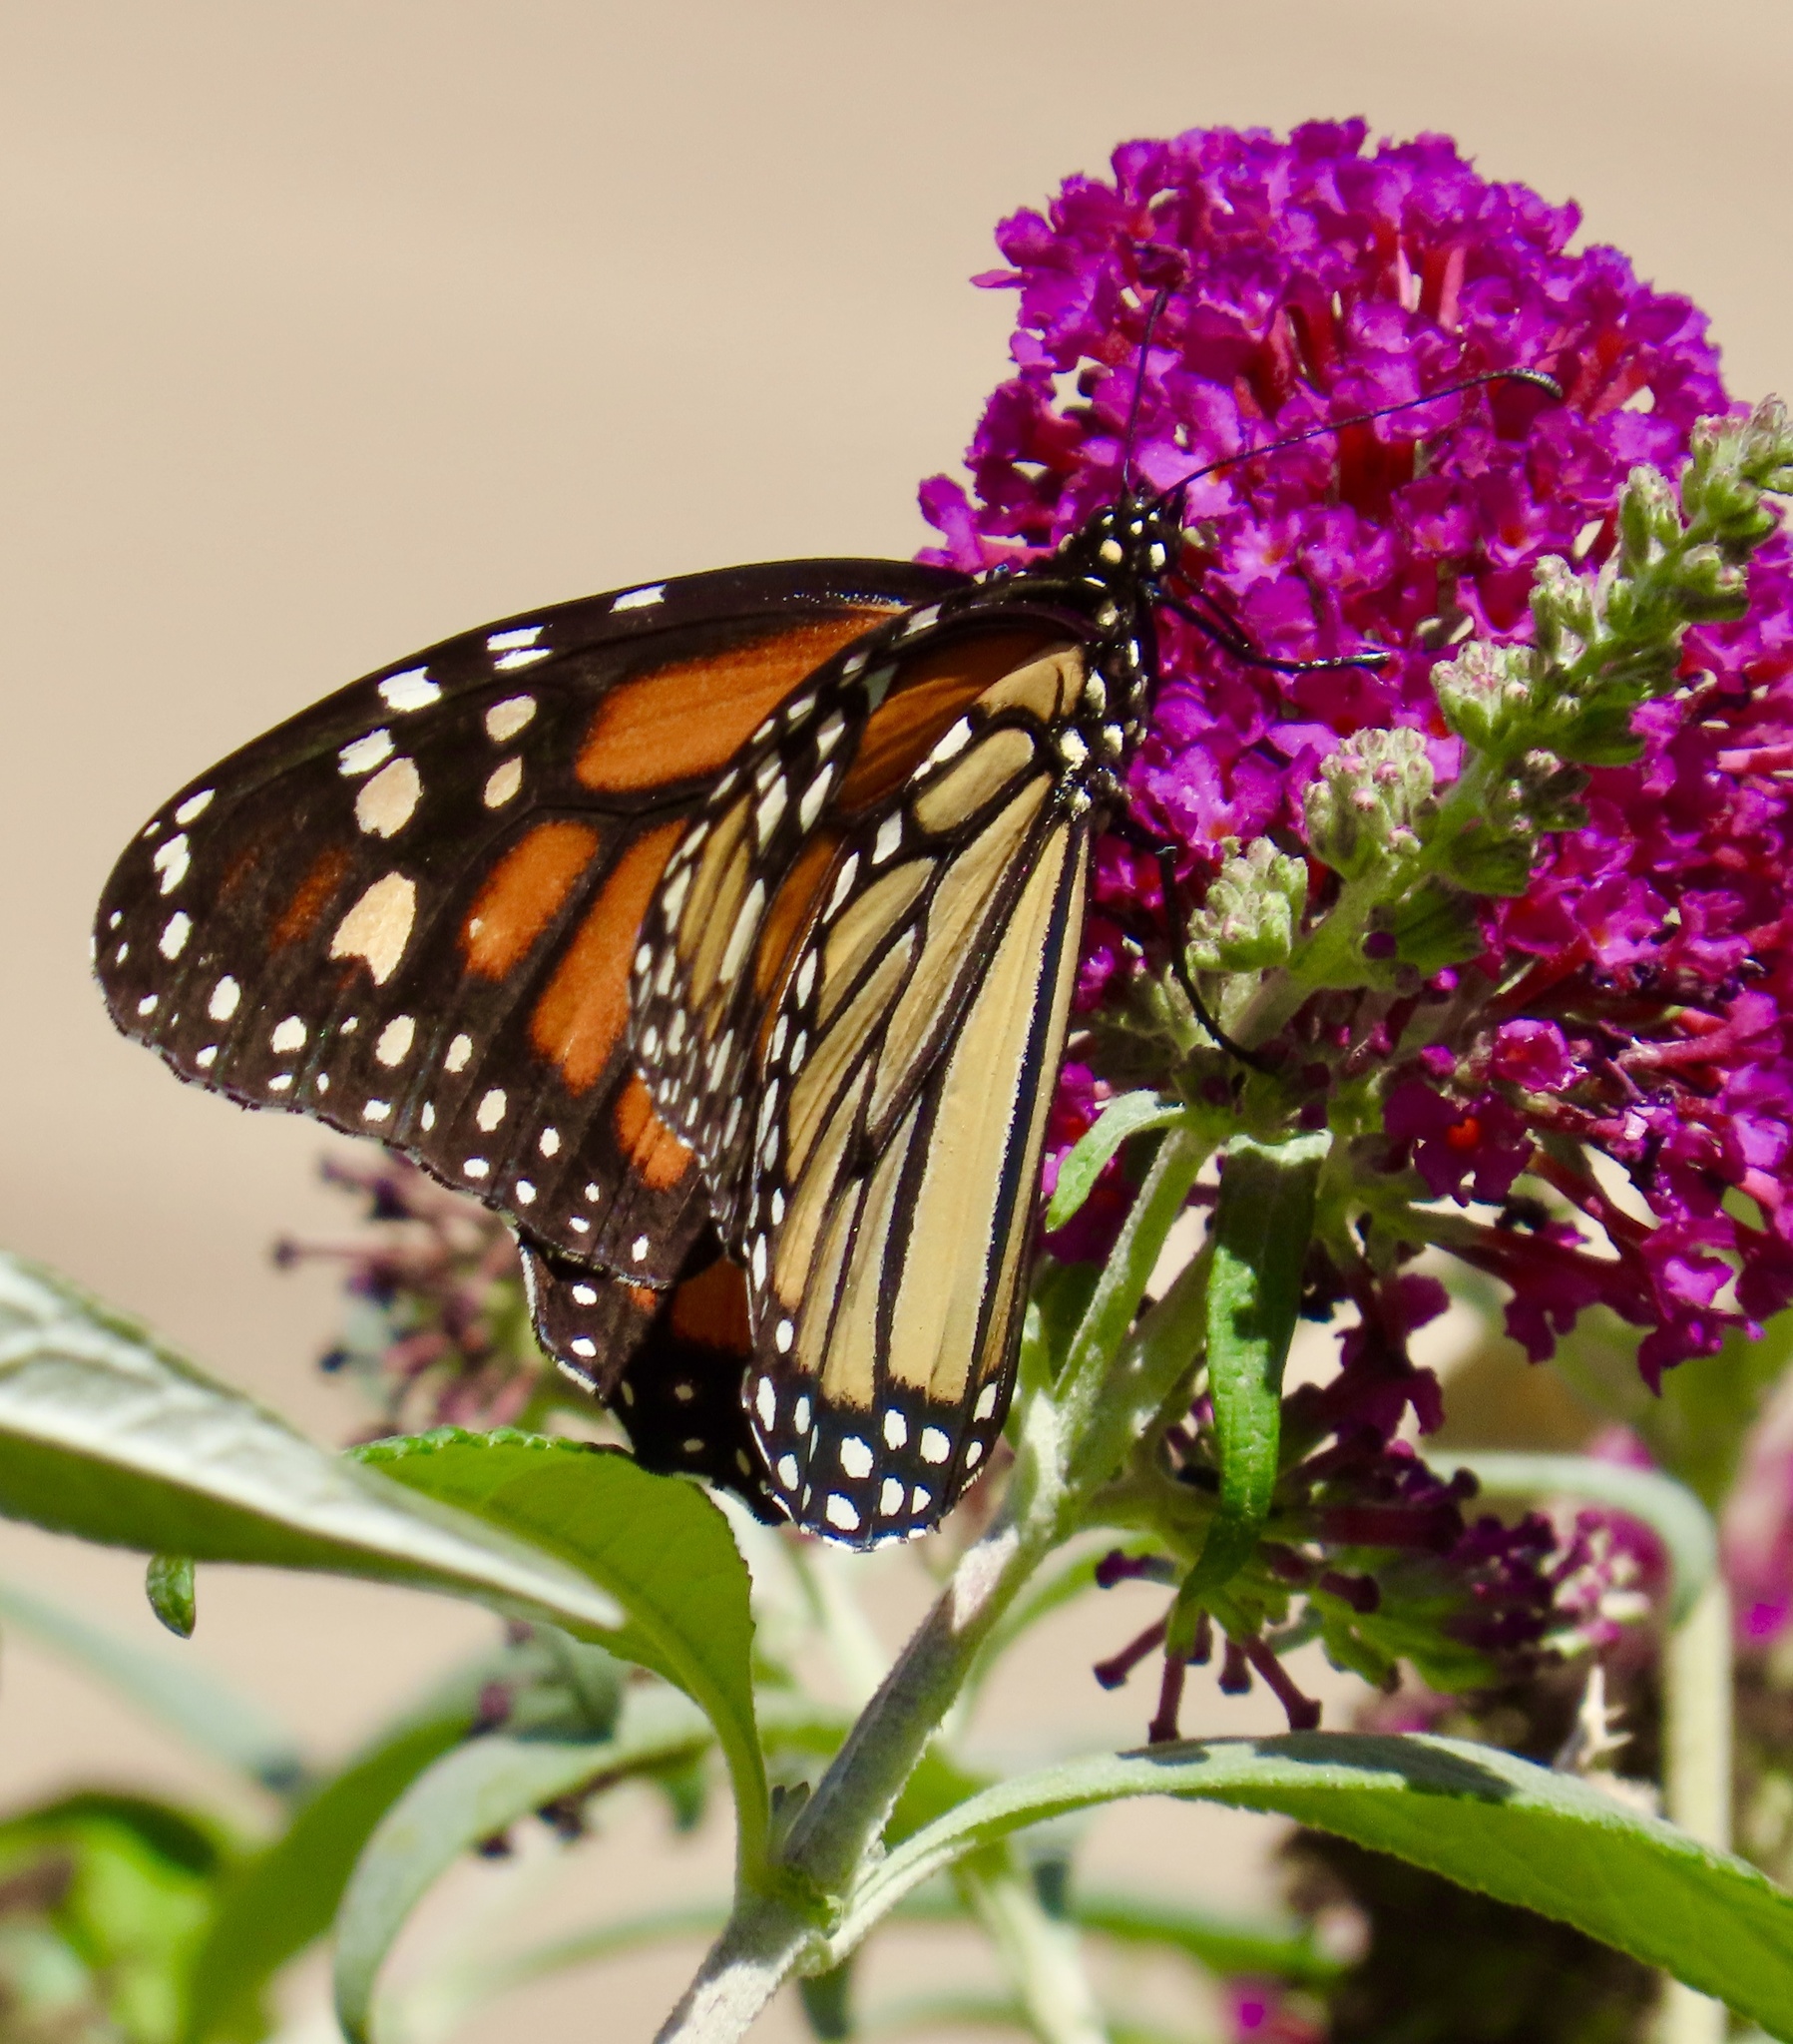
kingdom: Animalia
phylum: Arthropoda
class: Insecta
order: Lepidoptera
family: Nymphalidae
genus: Danaus
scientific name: Danaus plexippus
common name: Monarch
